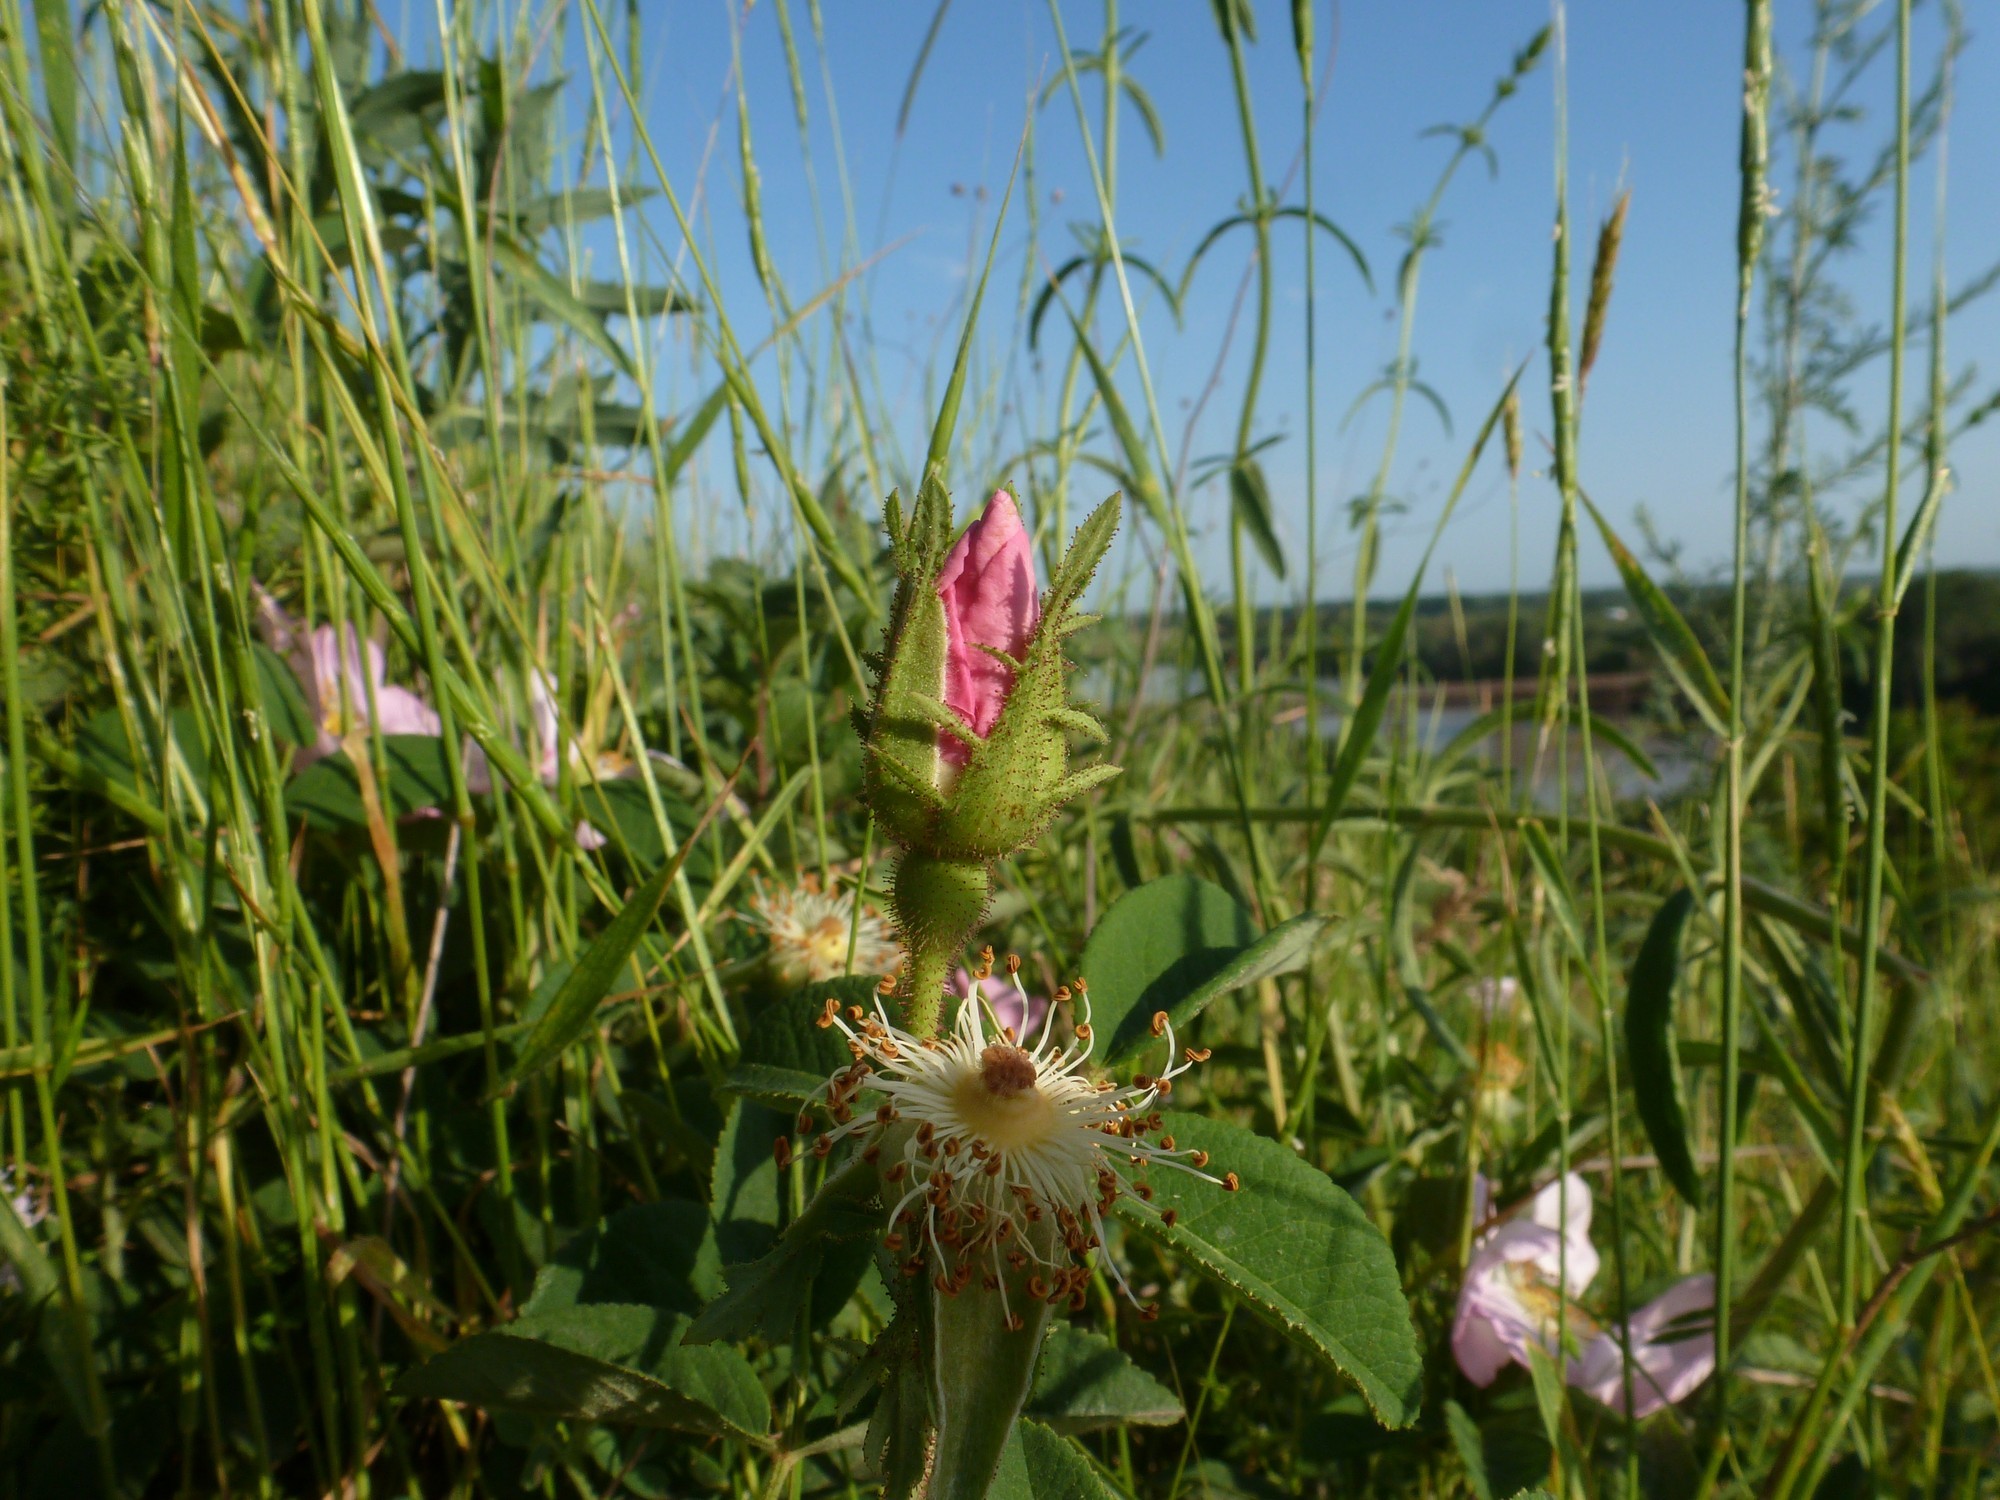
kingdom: Plantae
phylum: Tracheophyta
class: Magnoliopsida
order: Rosales
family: Rosaceae
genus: Rosa
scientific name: Rosa gallica
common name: French rose
